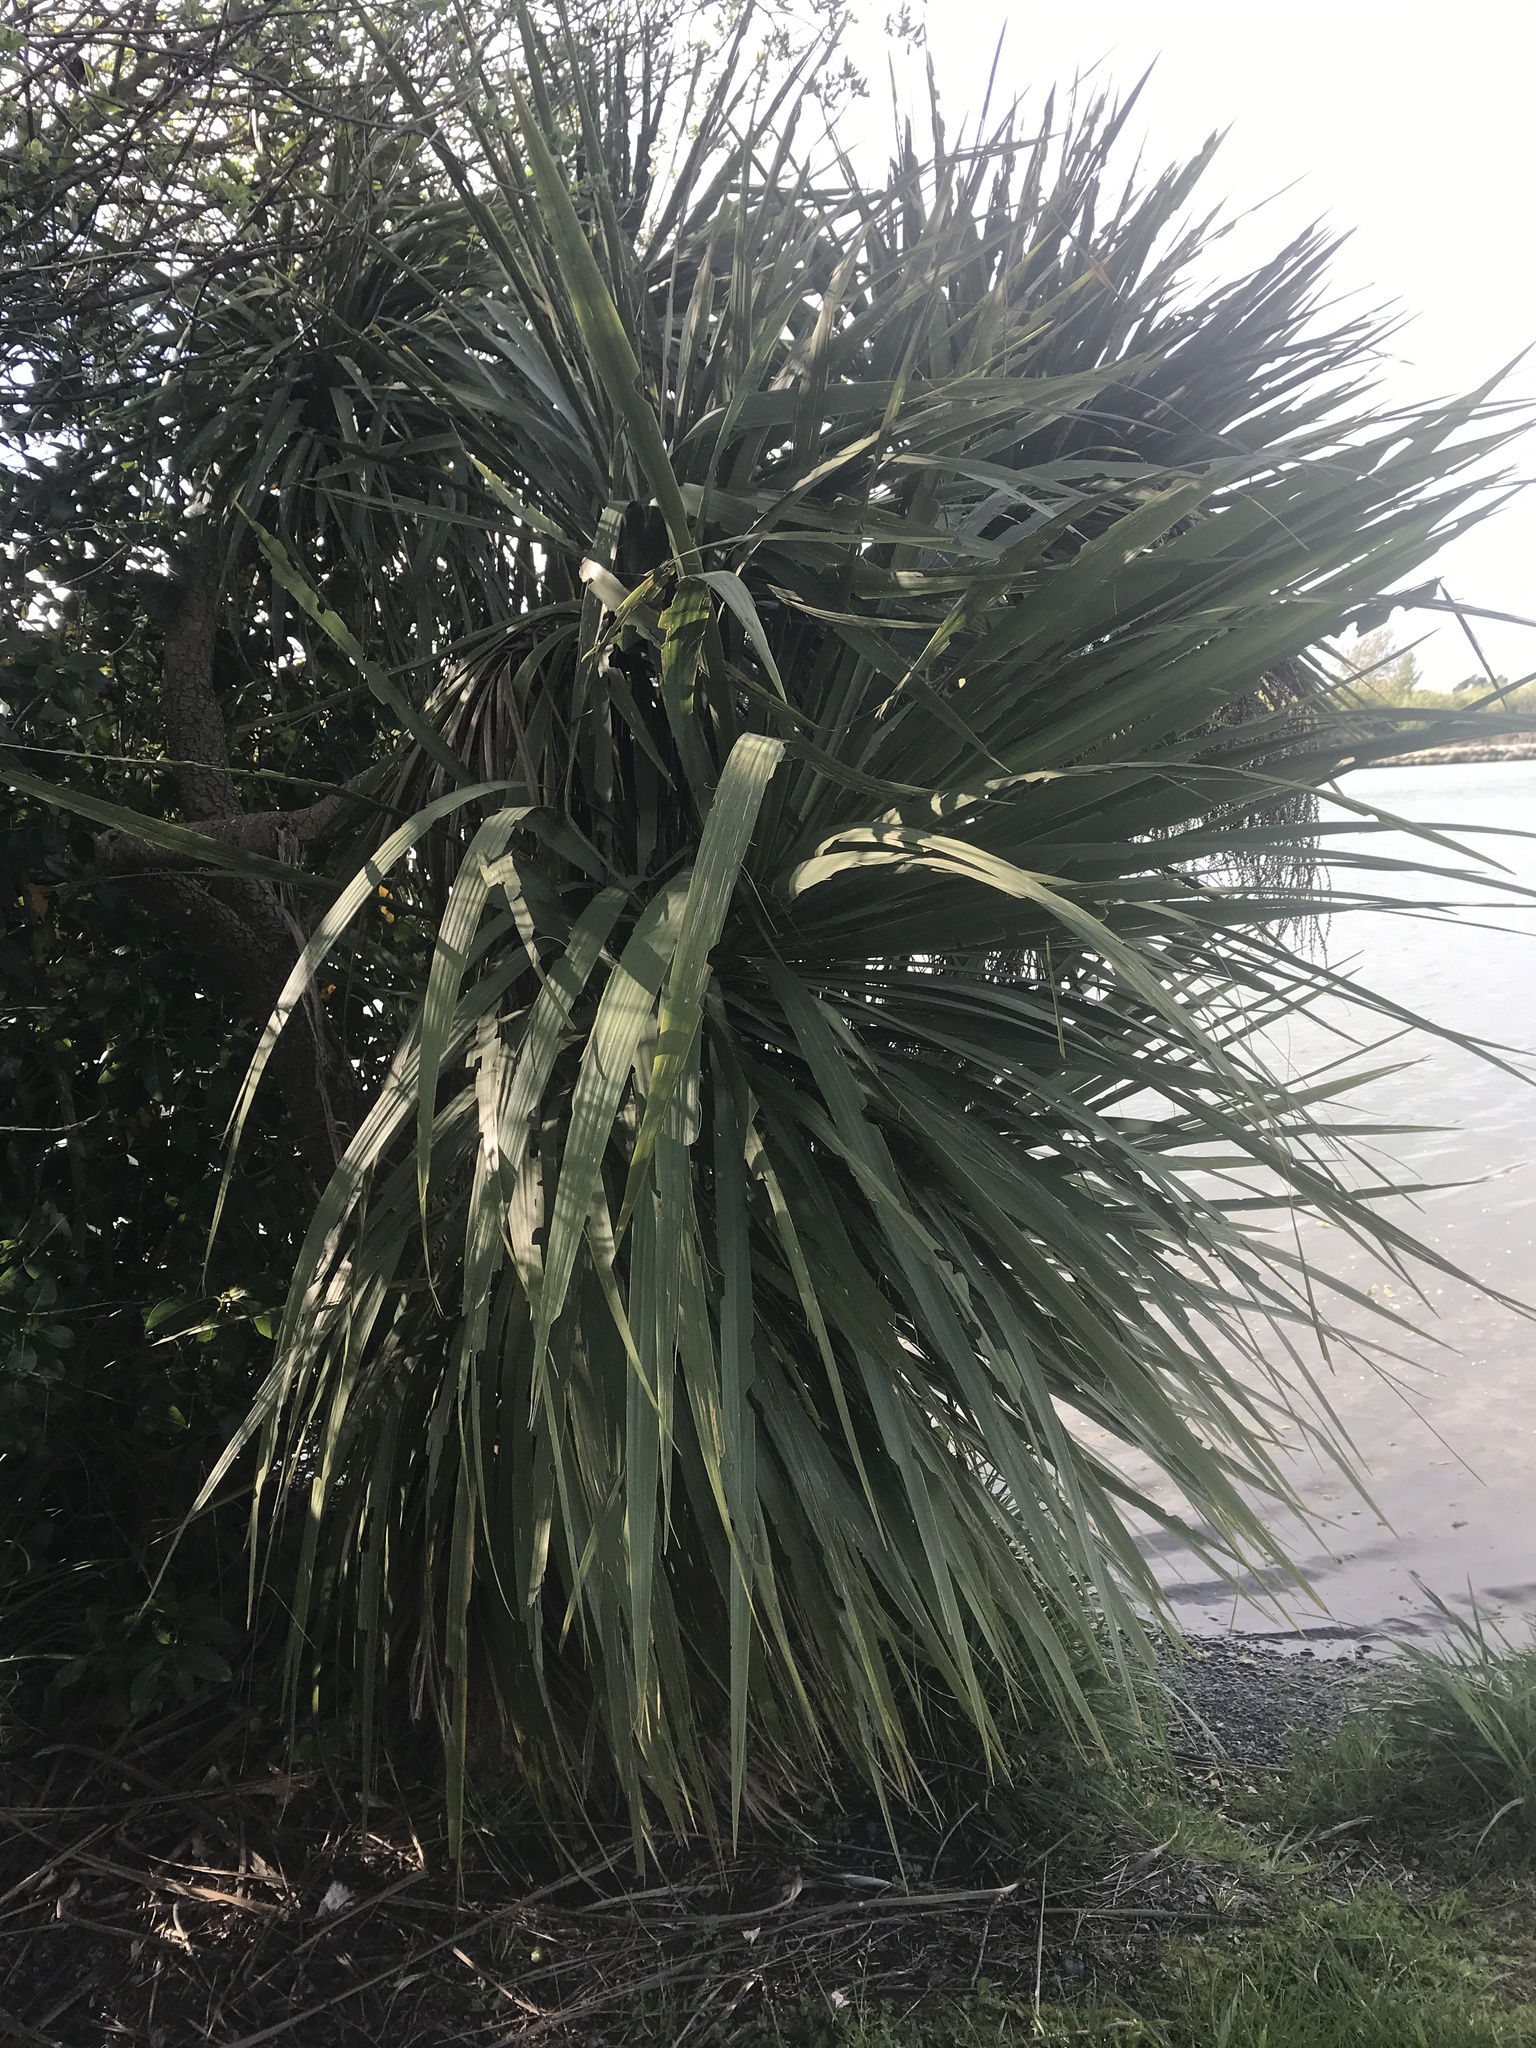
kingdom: Plantae
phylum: Tracheophyta
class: Liliopsida
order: Asparagales
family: Asparagaceae
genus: Cordyline
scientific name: Cordyline australis
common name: Cabbage-palm
